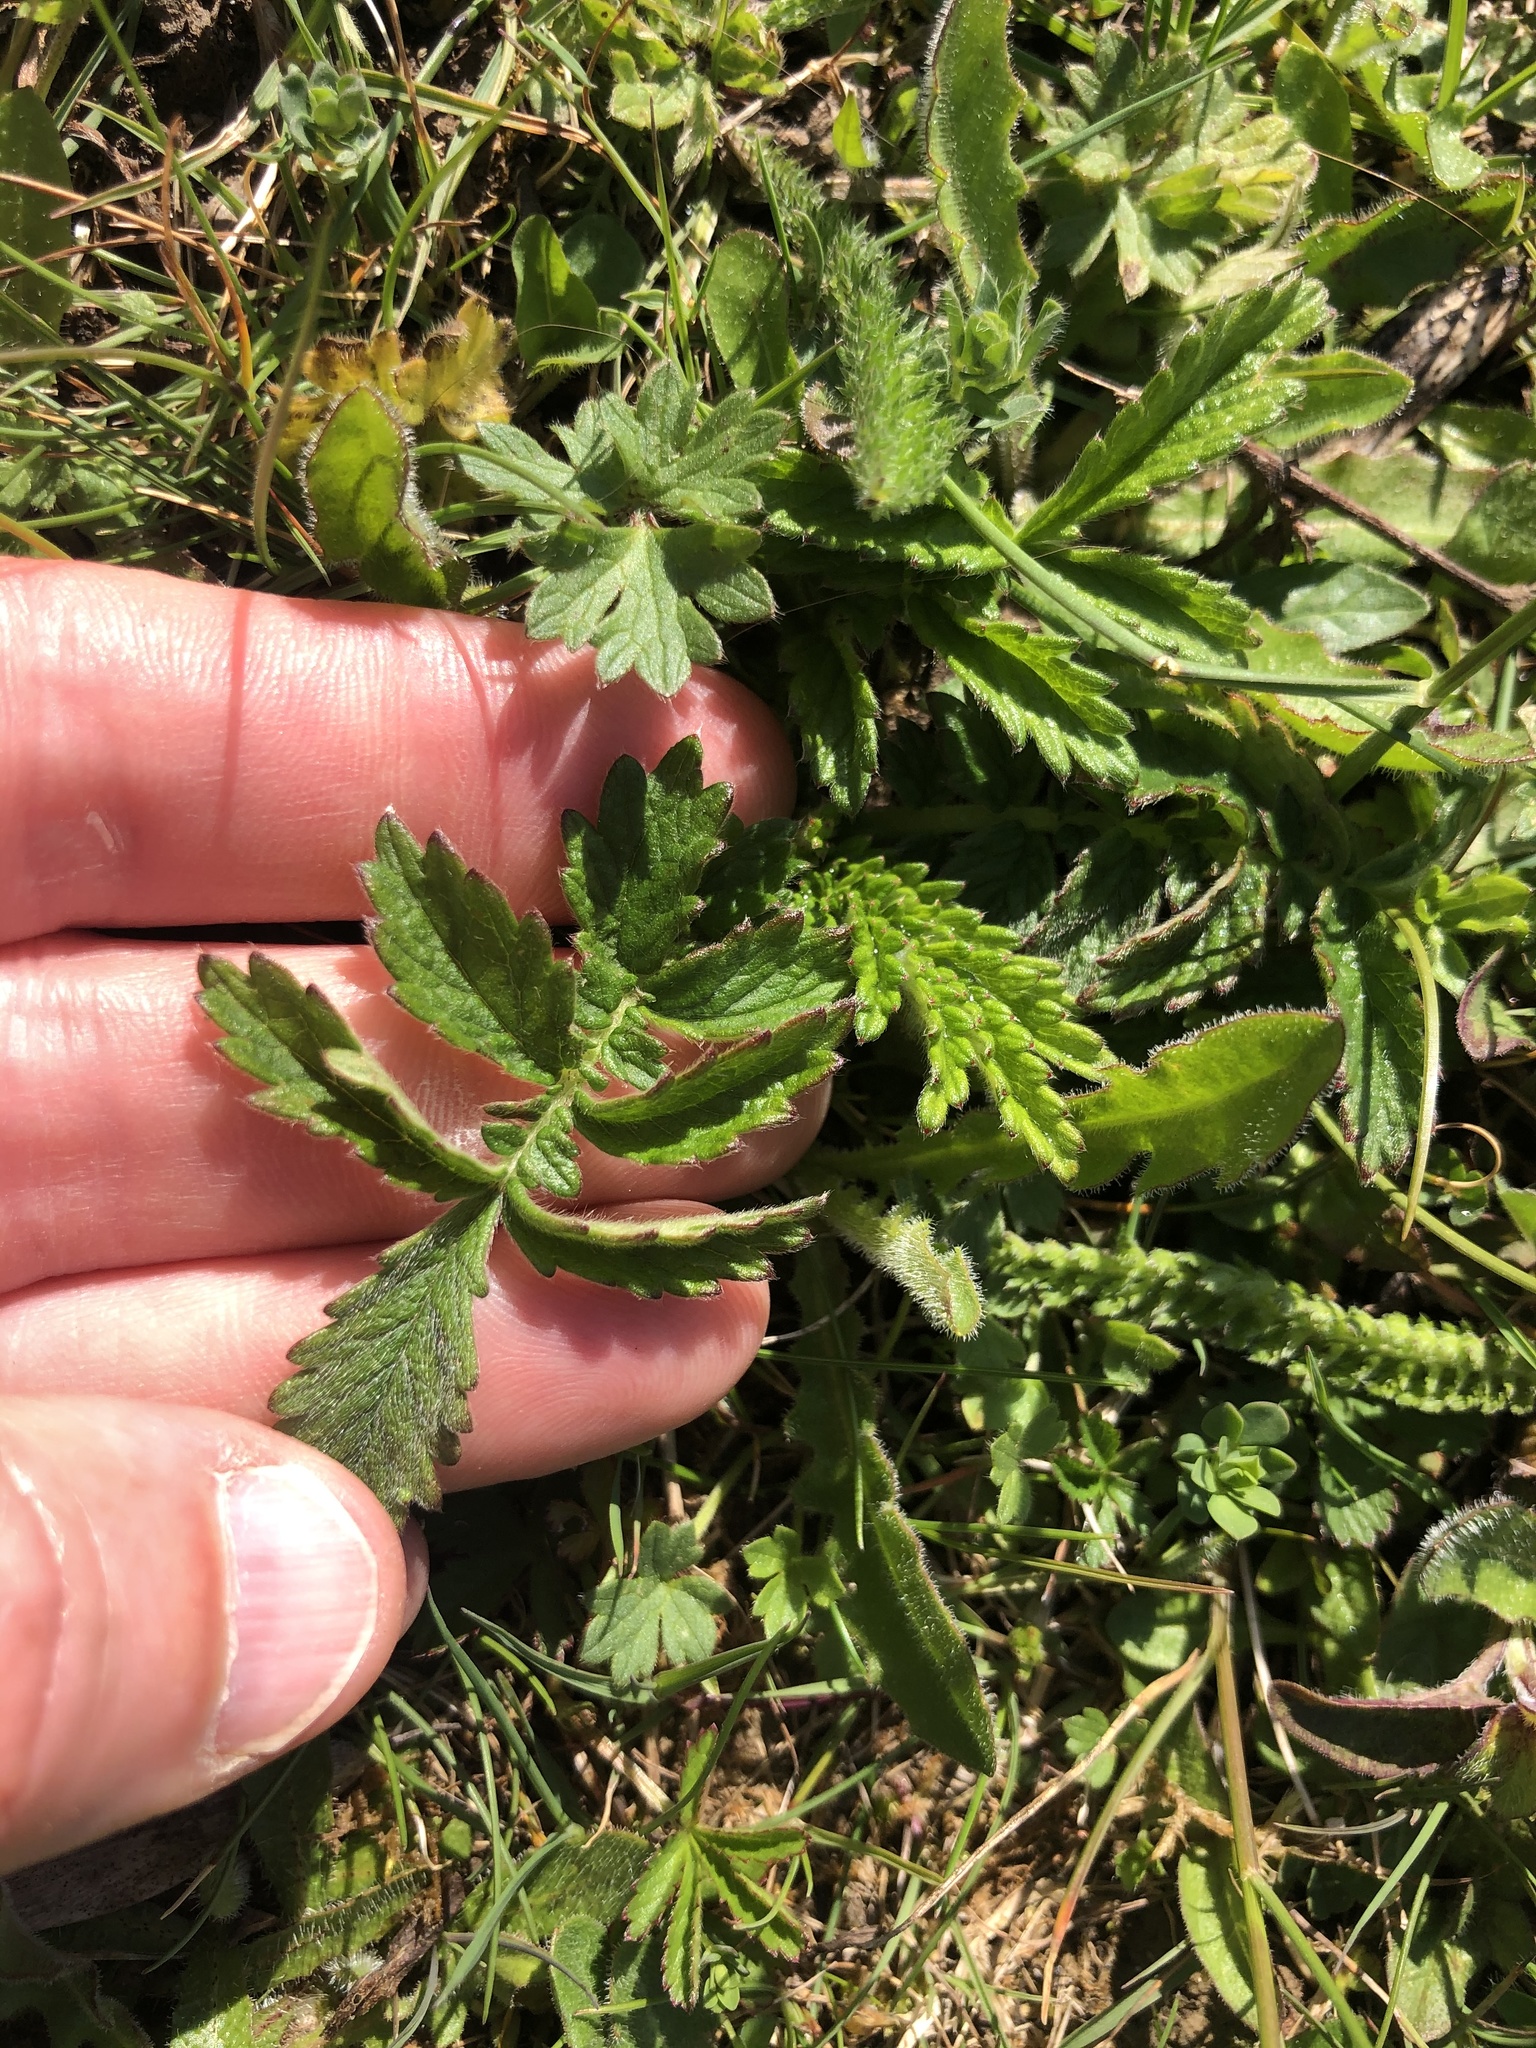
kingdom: Plantae
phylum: Tracheophyta
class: Magnoliopsida
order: Rosales
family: Rosaceae
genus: Agrimonia
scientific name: Agrimonia eupatoria
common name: Agrimony
